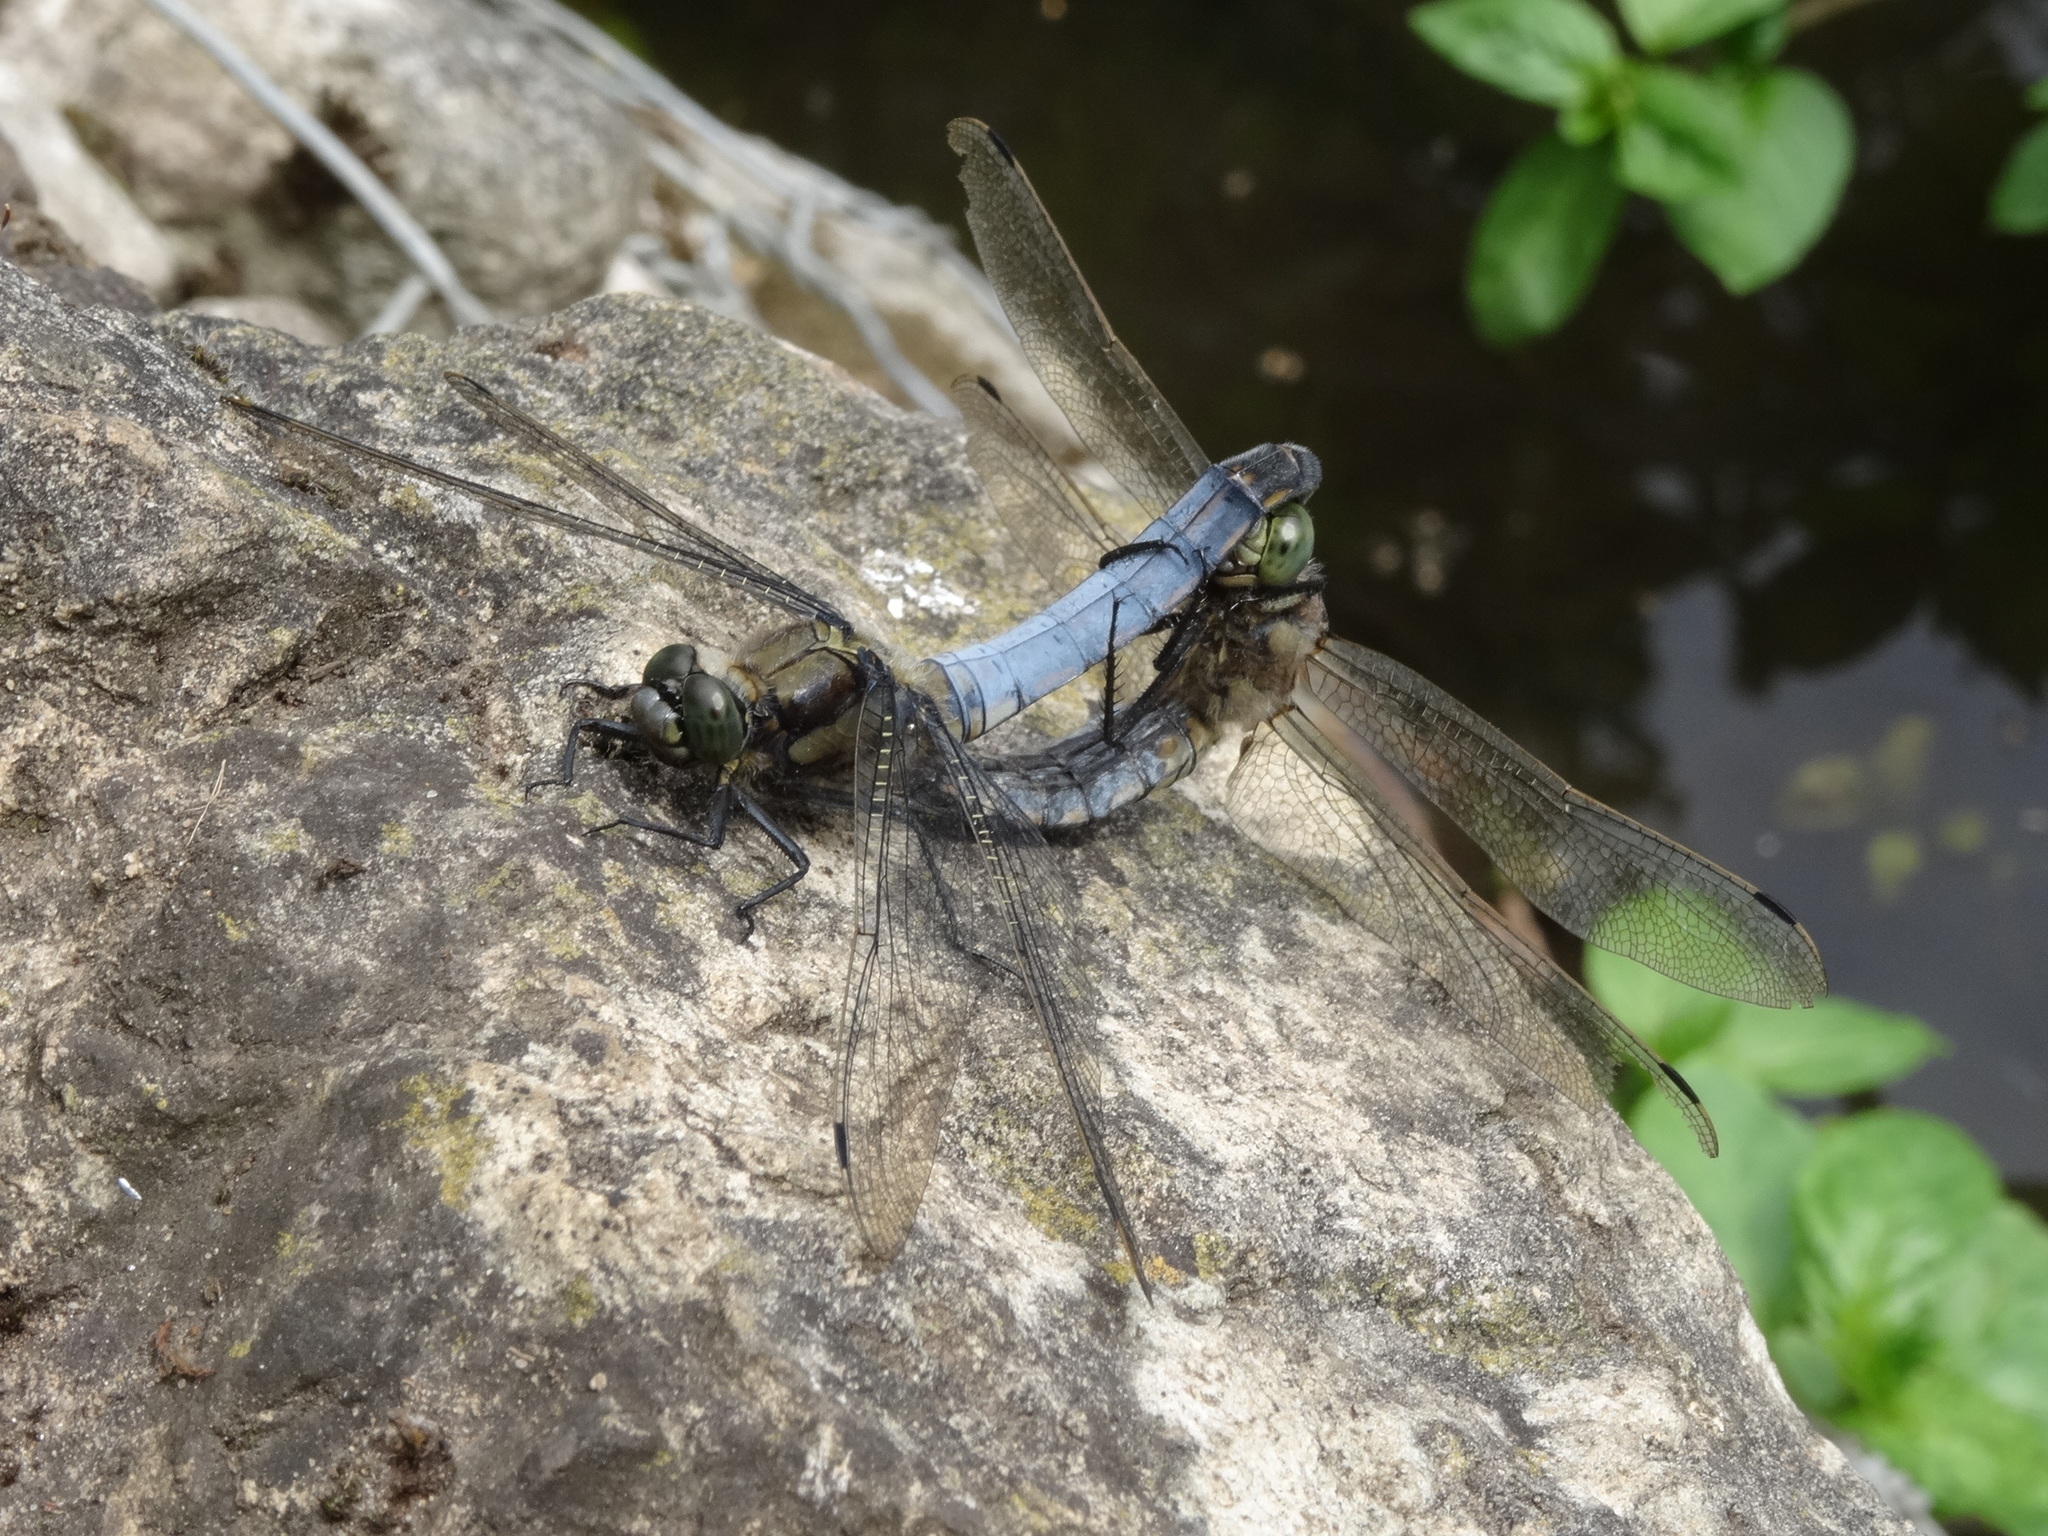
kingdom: Animalia
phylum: Arthropoda
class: Insecta
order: Odonata
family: Libellulidae
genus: Orthetrum
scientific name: Orthetrum cancellatum
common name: Black-tailed skimmer
